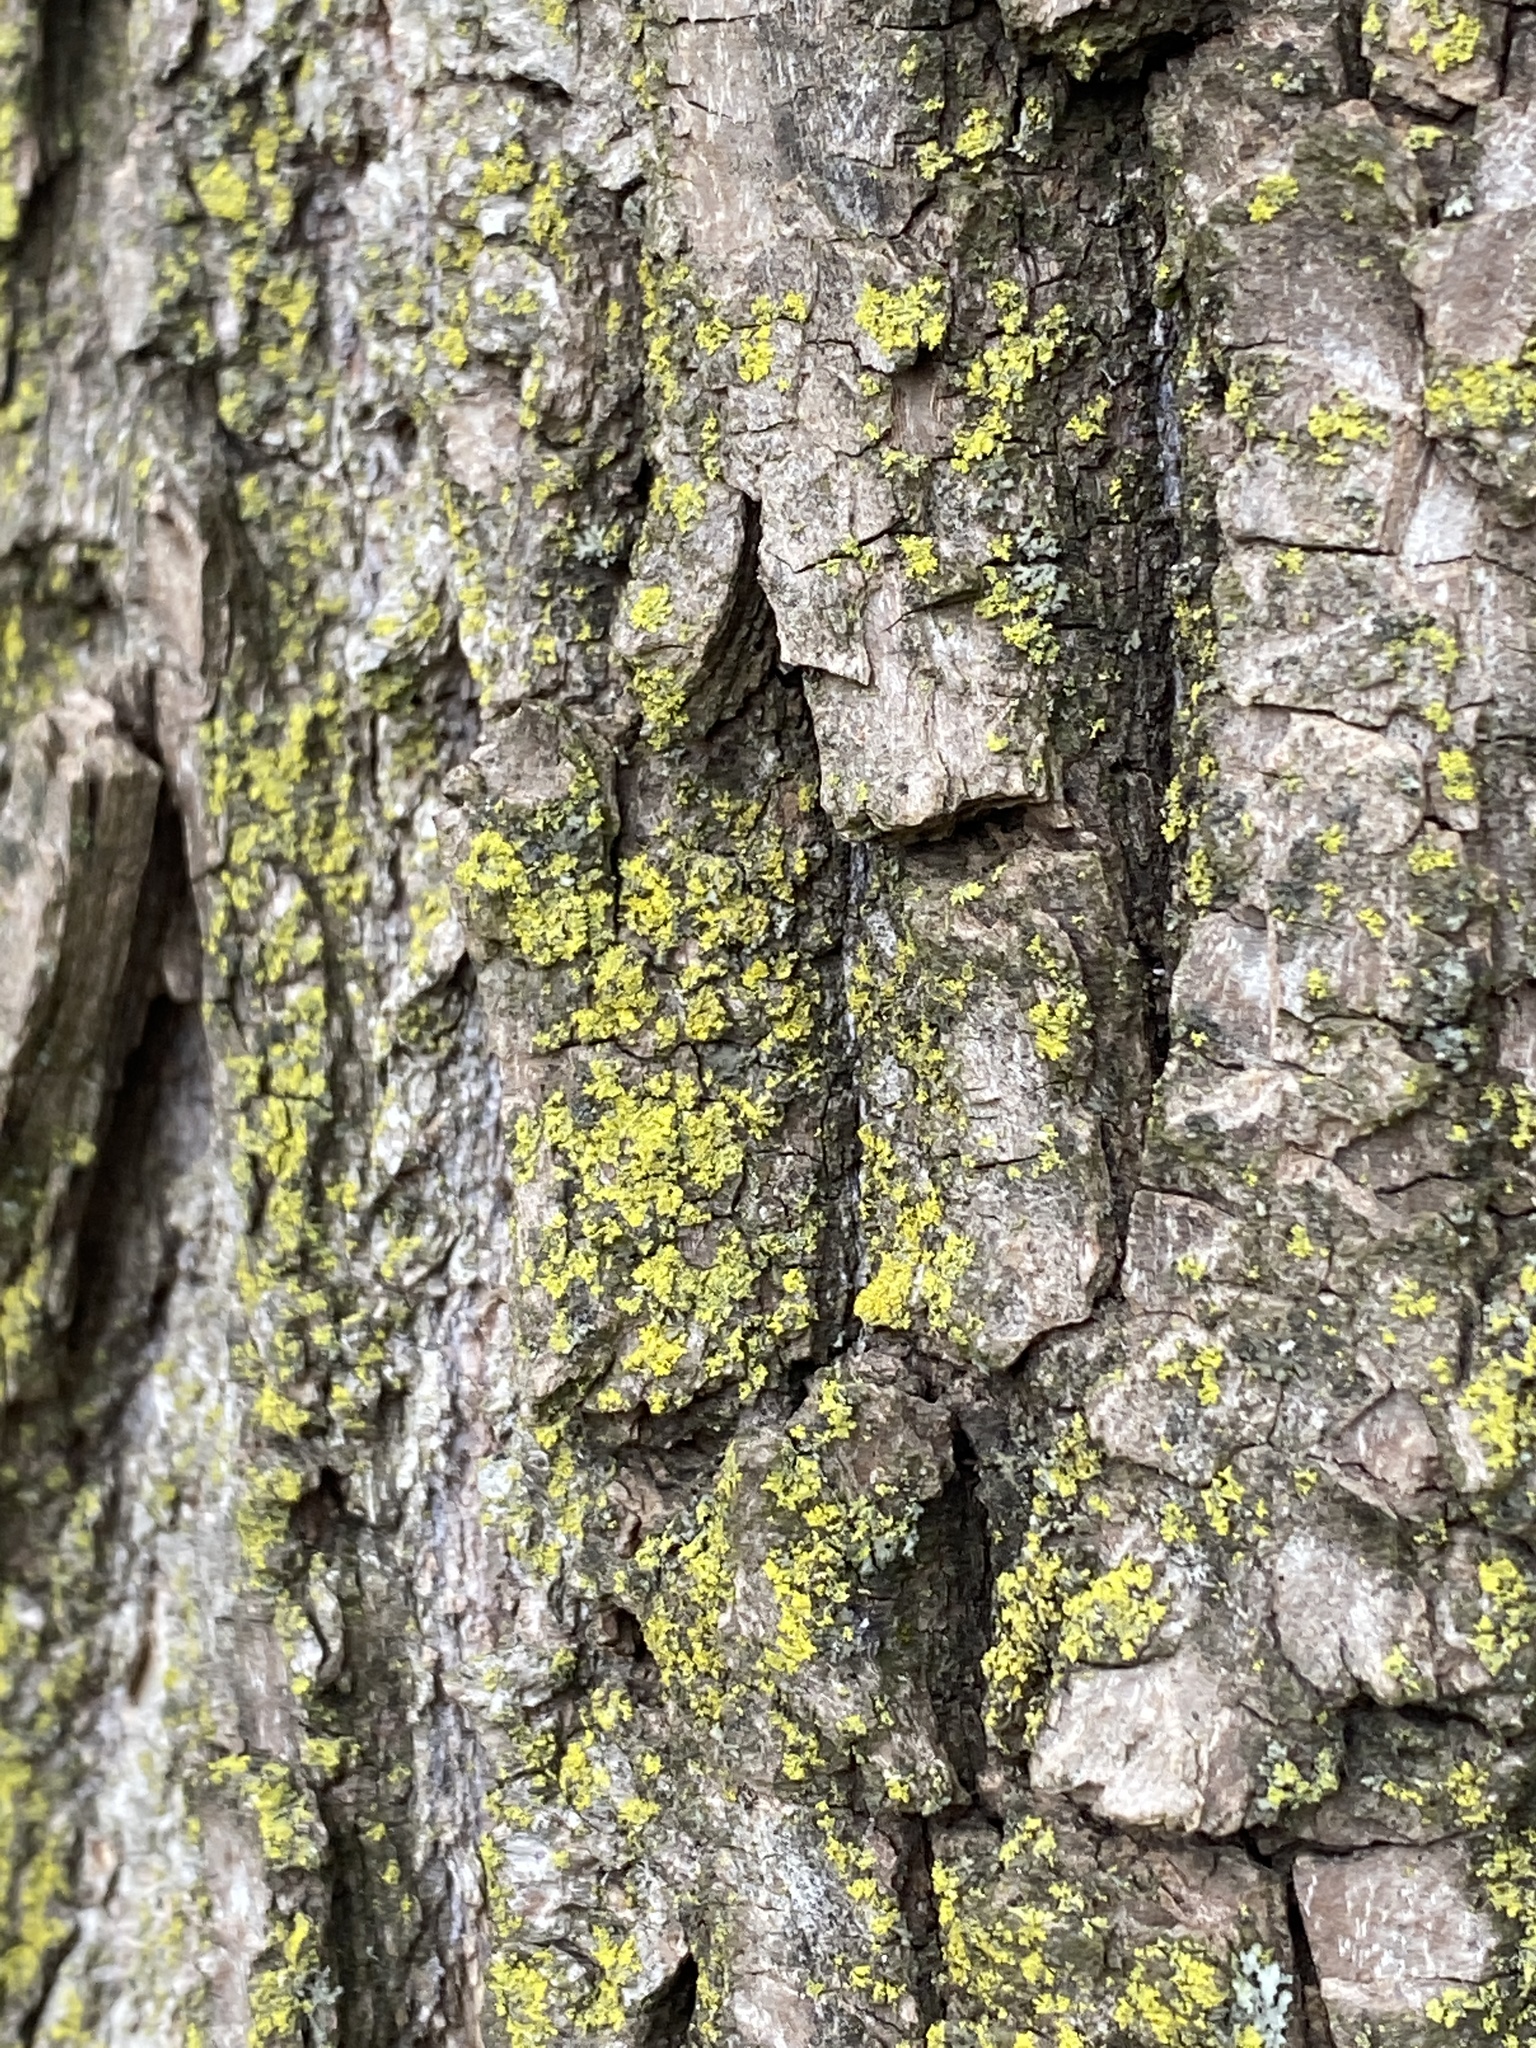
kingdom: Fungi
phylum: Ascomycota
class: Candelariomycetes
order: Candelariales
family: Candelariaceae
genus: Candelaria
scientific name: Candelaria concolor
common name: Candleflame lichen
